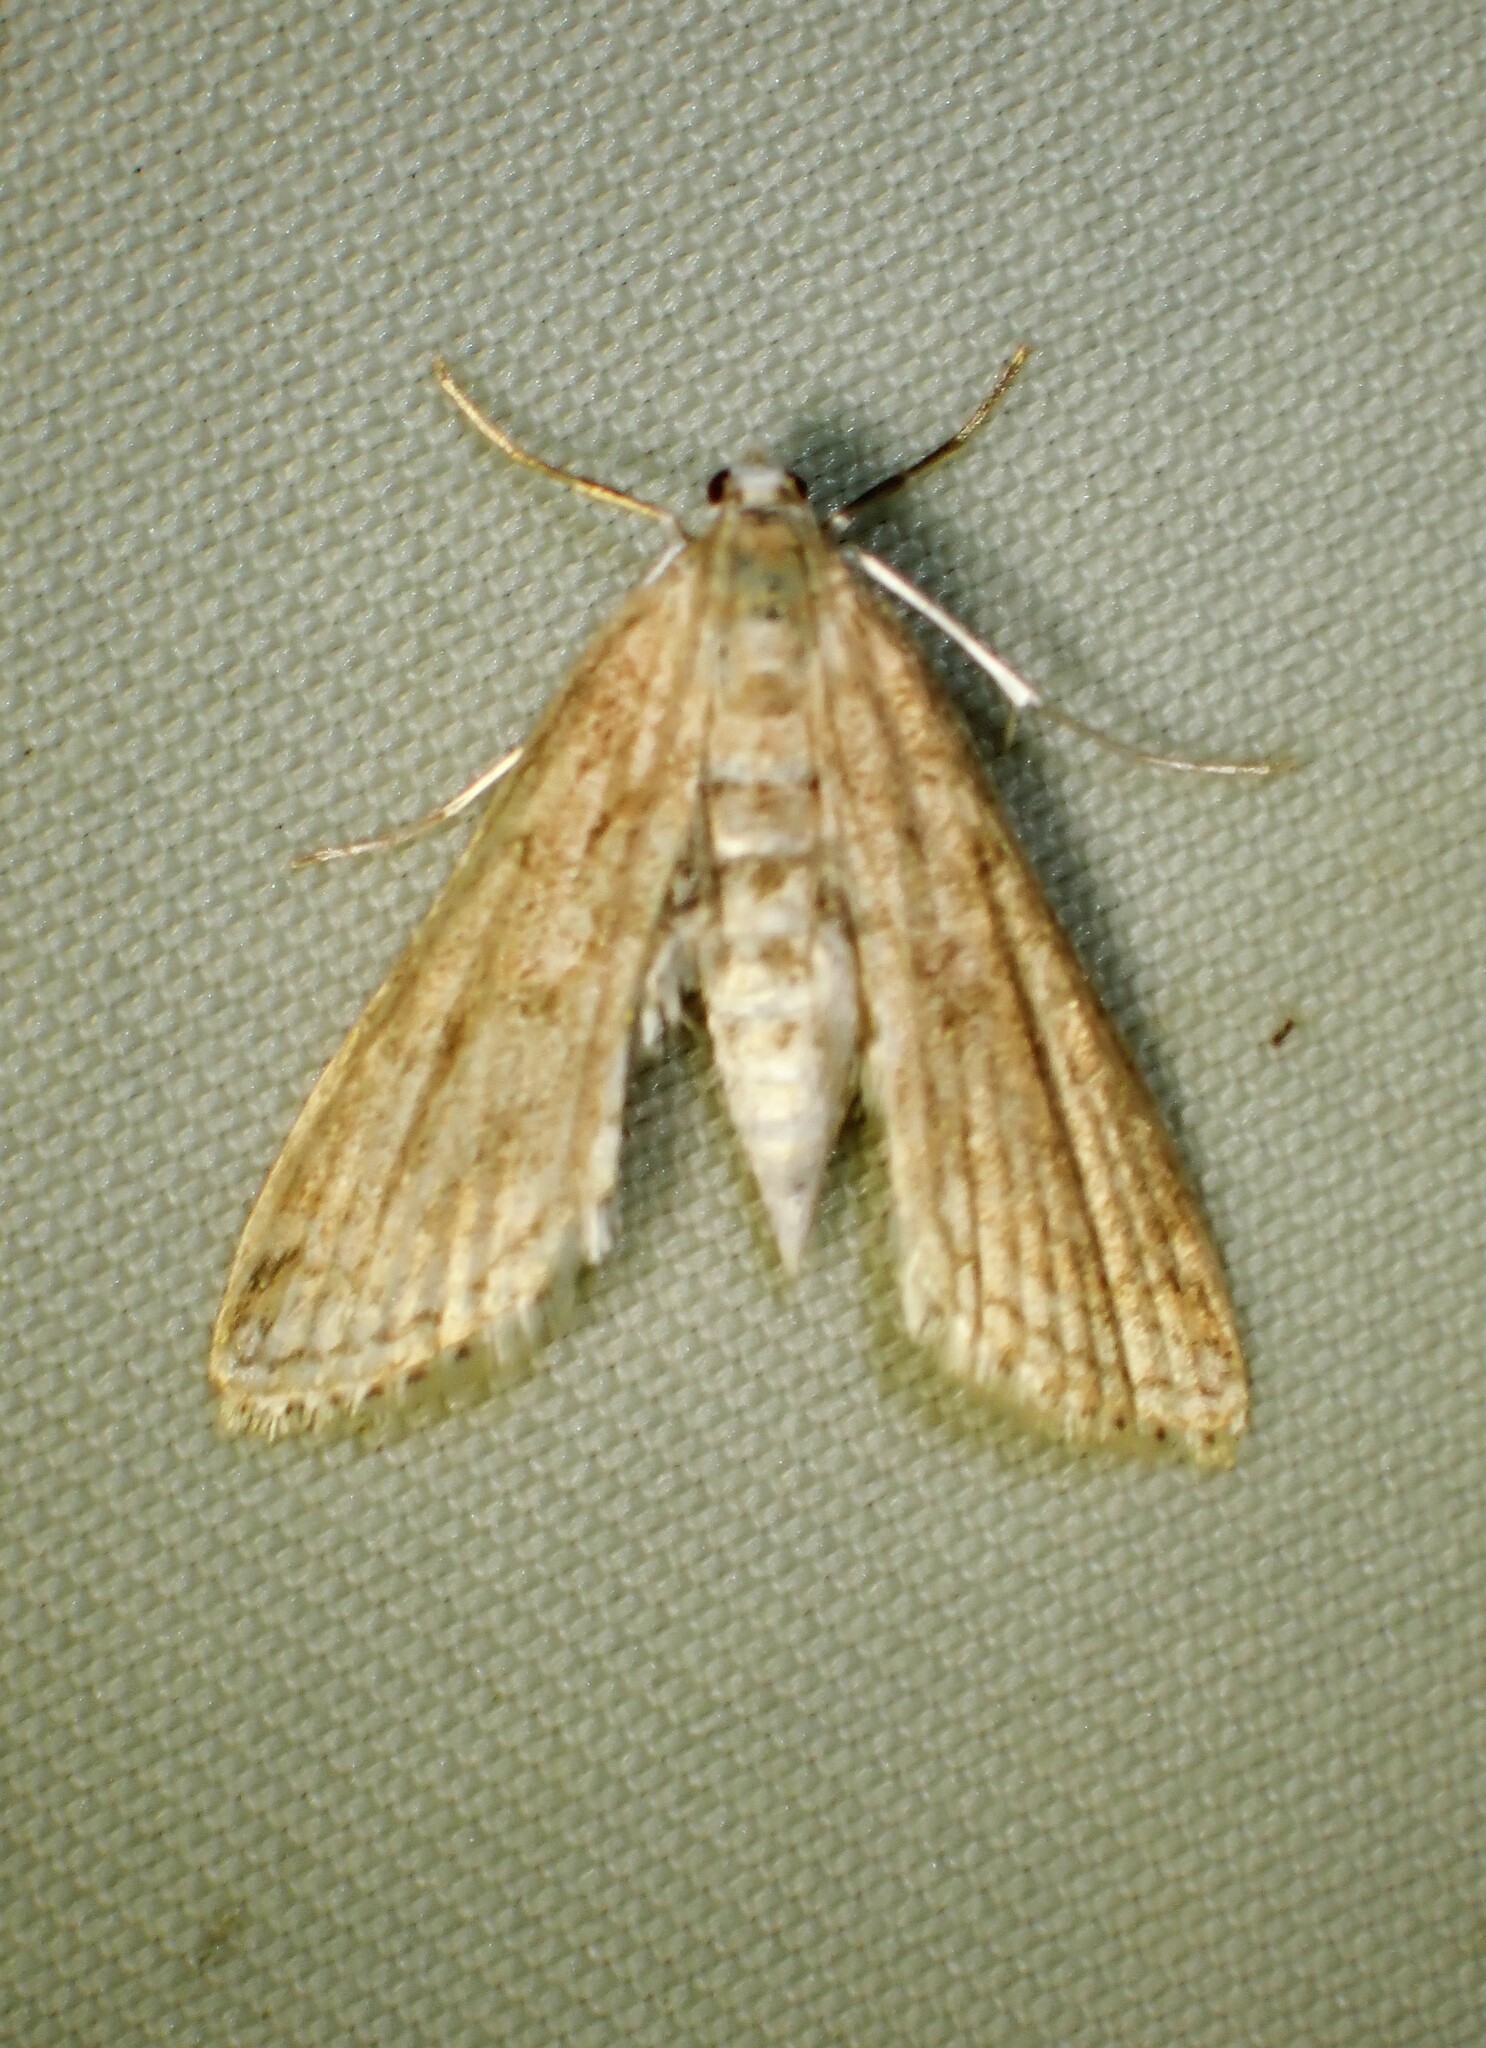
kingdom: Animalia
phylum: Arthropoda
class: Insecta
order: Lepidoptera
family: Crambidae
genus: Parapoynx
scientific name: Parapoynx allionealis
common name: Bladderwort casemaker
